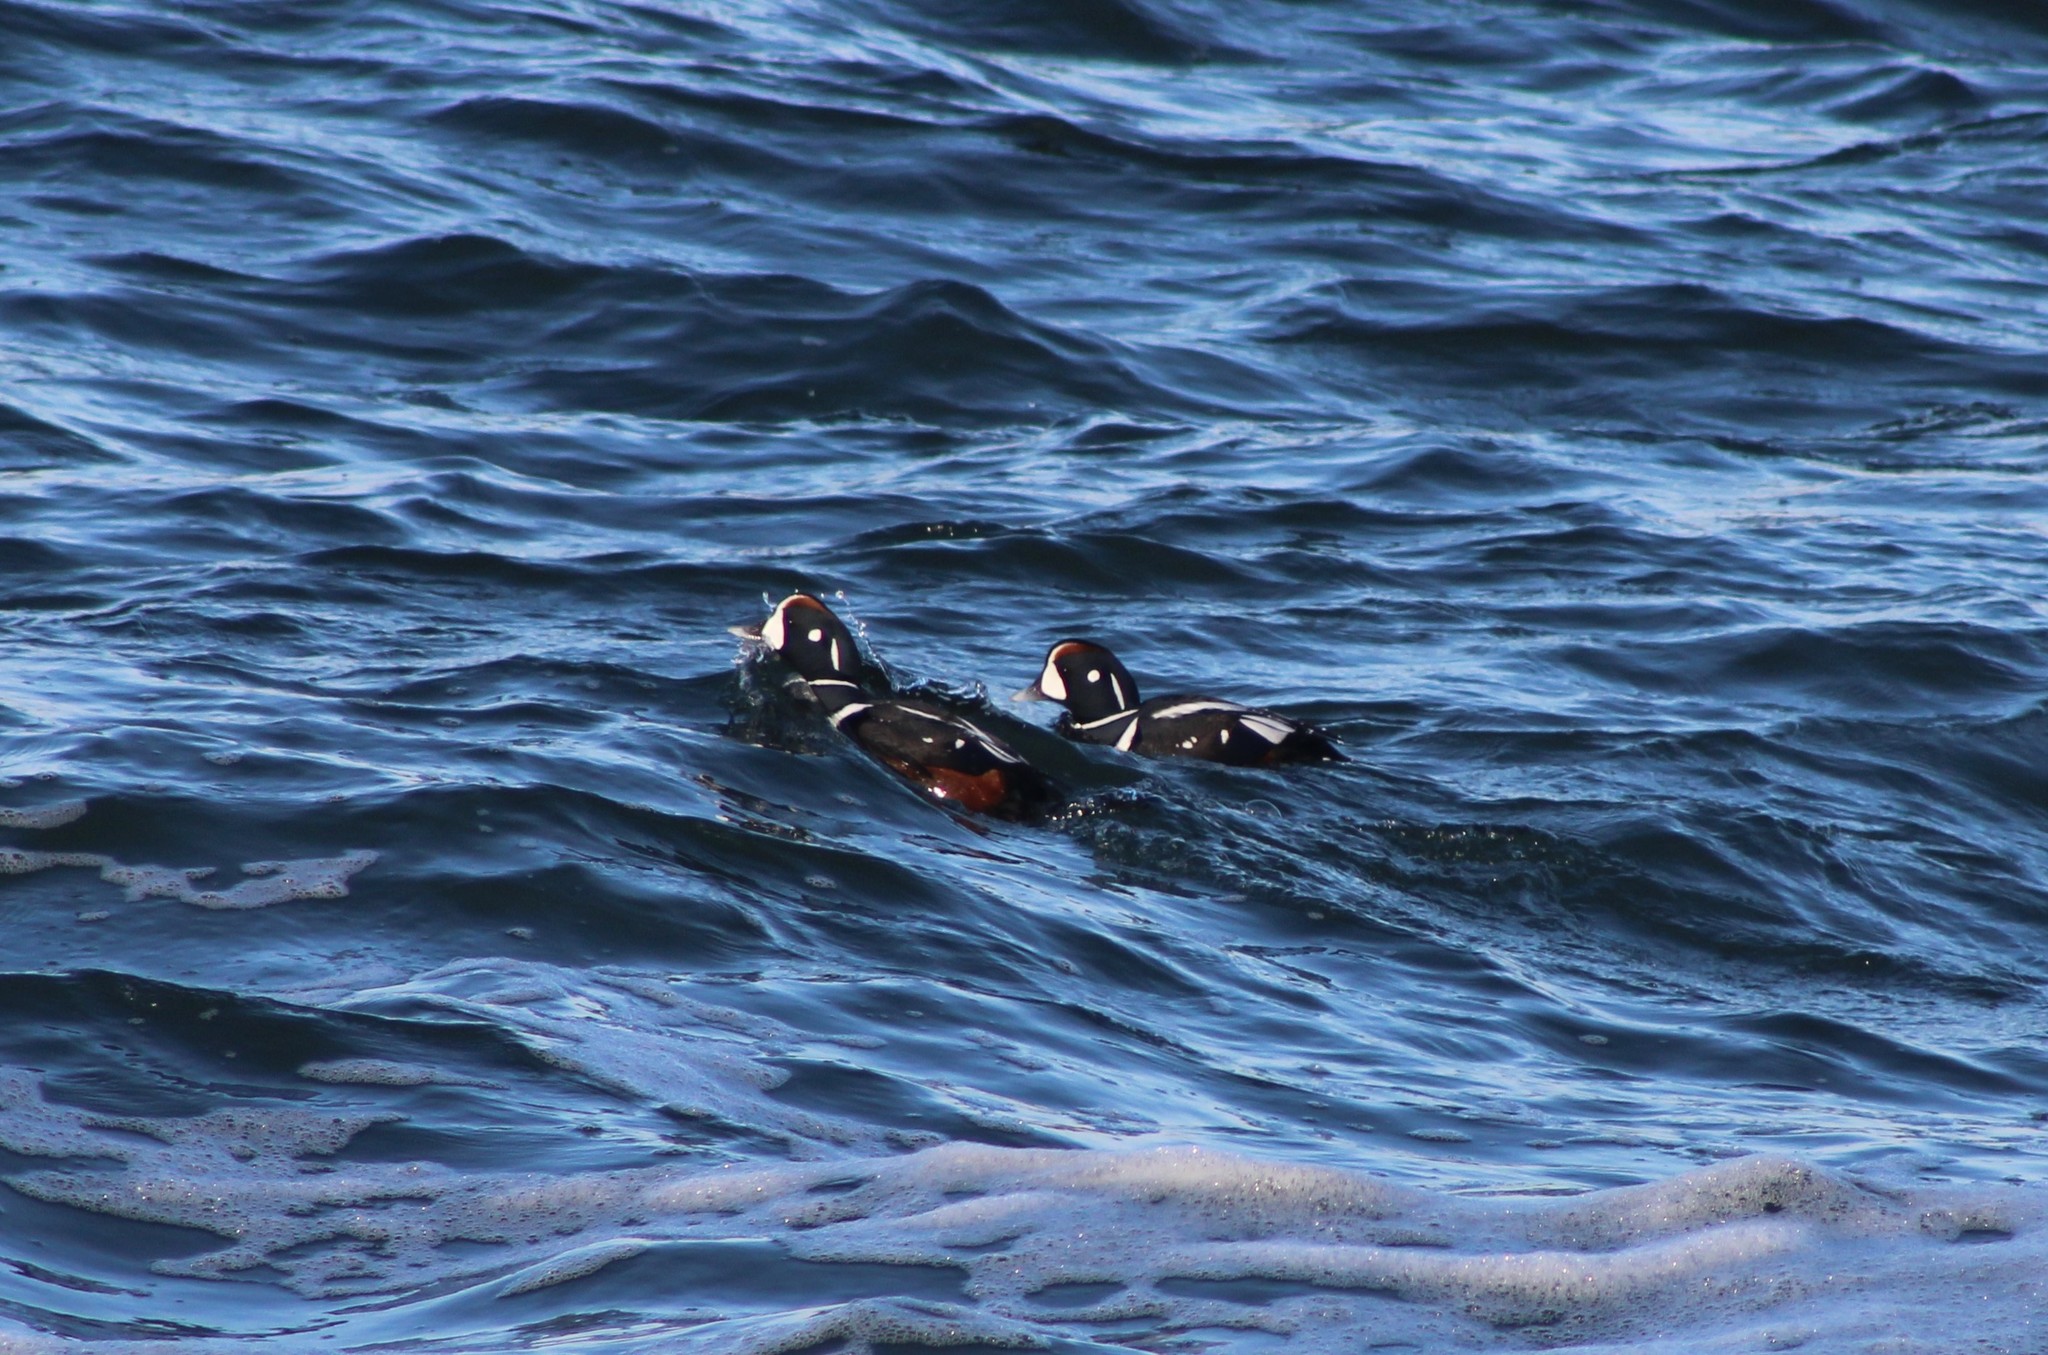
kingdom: Animalia
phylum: Chordata
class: Aves
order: Anseriformes
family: Anatidae
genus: Histrionicus
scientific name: Histrionicus histrionicus
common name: Harlequin duck
